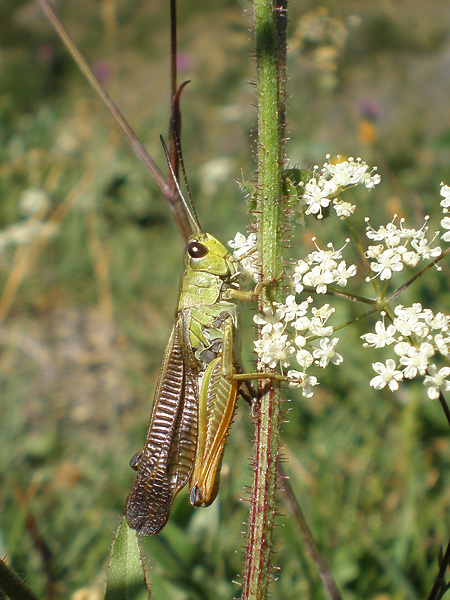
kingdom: Animalia
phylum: Arthropoda
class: Insecta
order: Orthoptera
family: Acrididae
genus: Stauroderus
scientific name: Stauroderus scalaris
